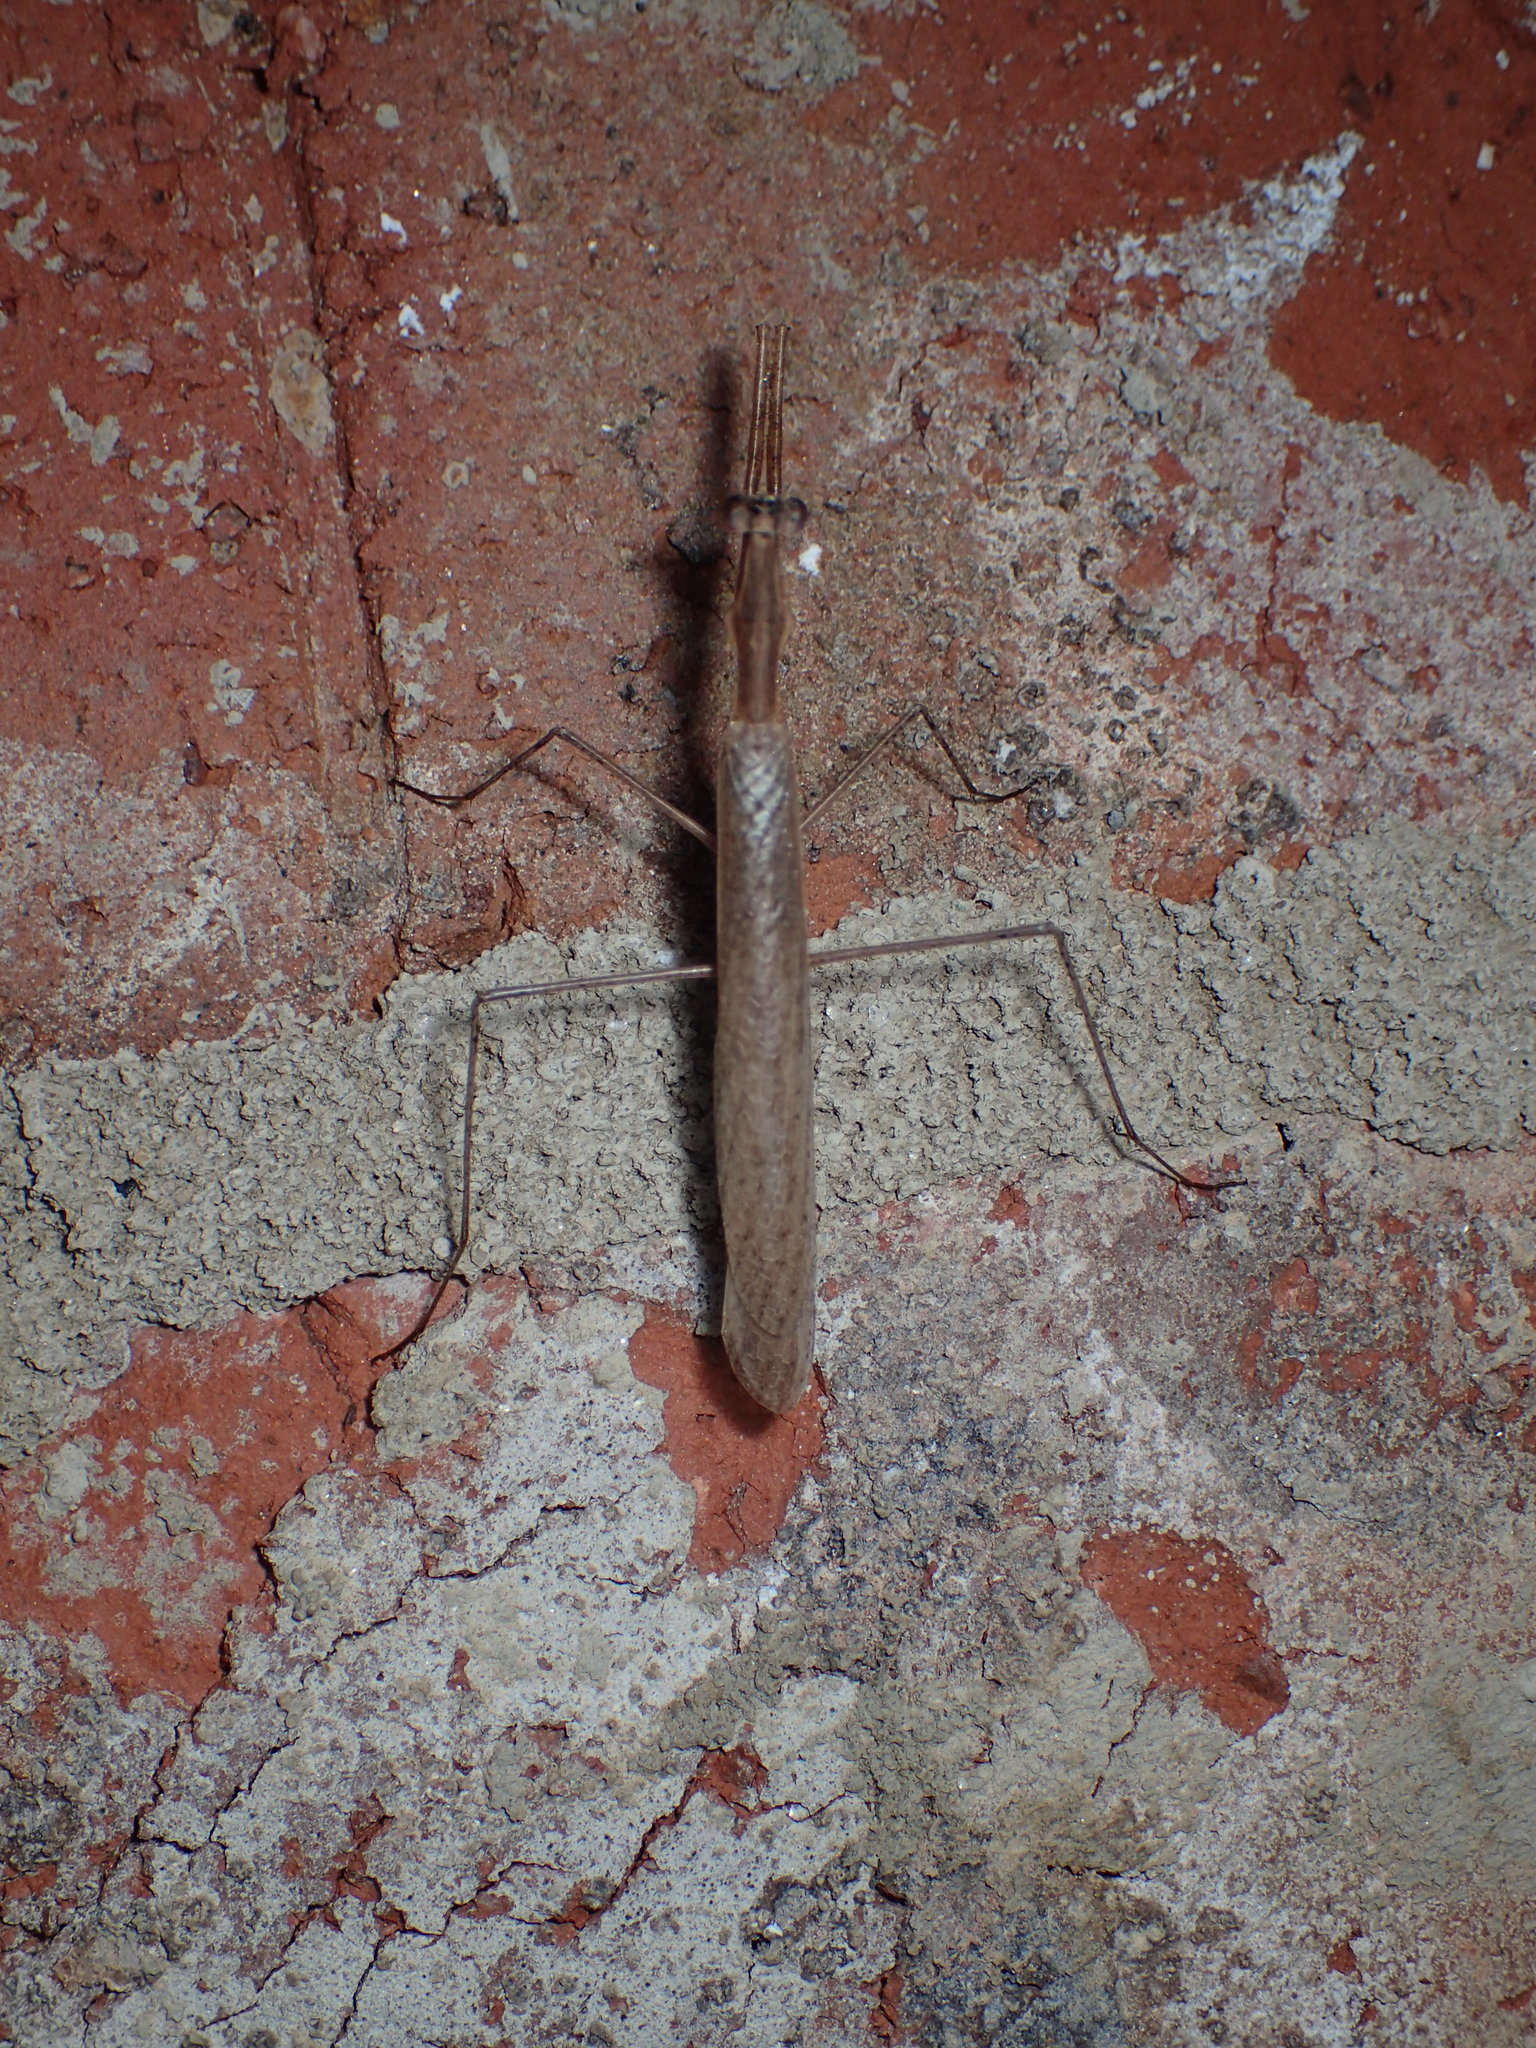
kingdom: Animalia
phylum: Arthropoda
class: Insecta
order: Mantodea
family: Thespidae
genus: Oligonicella
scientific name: Oligonicella scudderi
